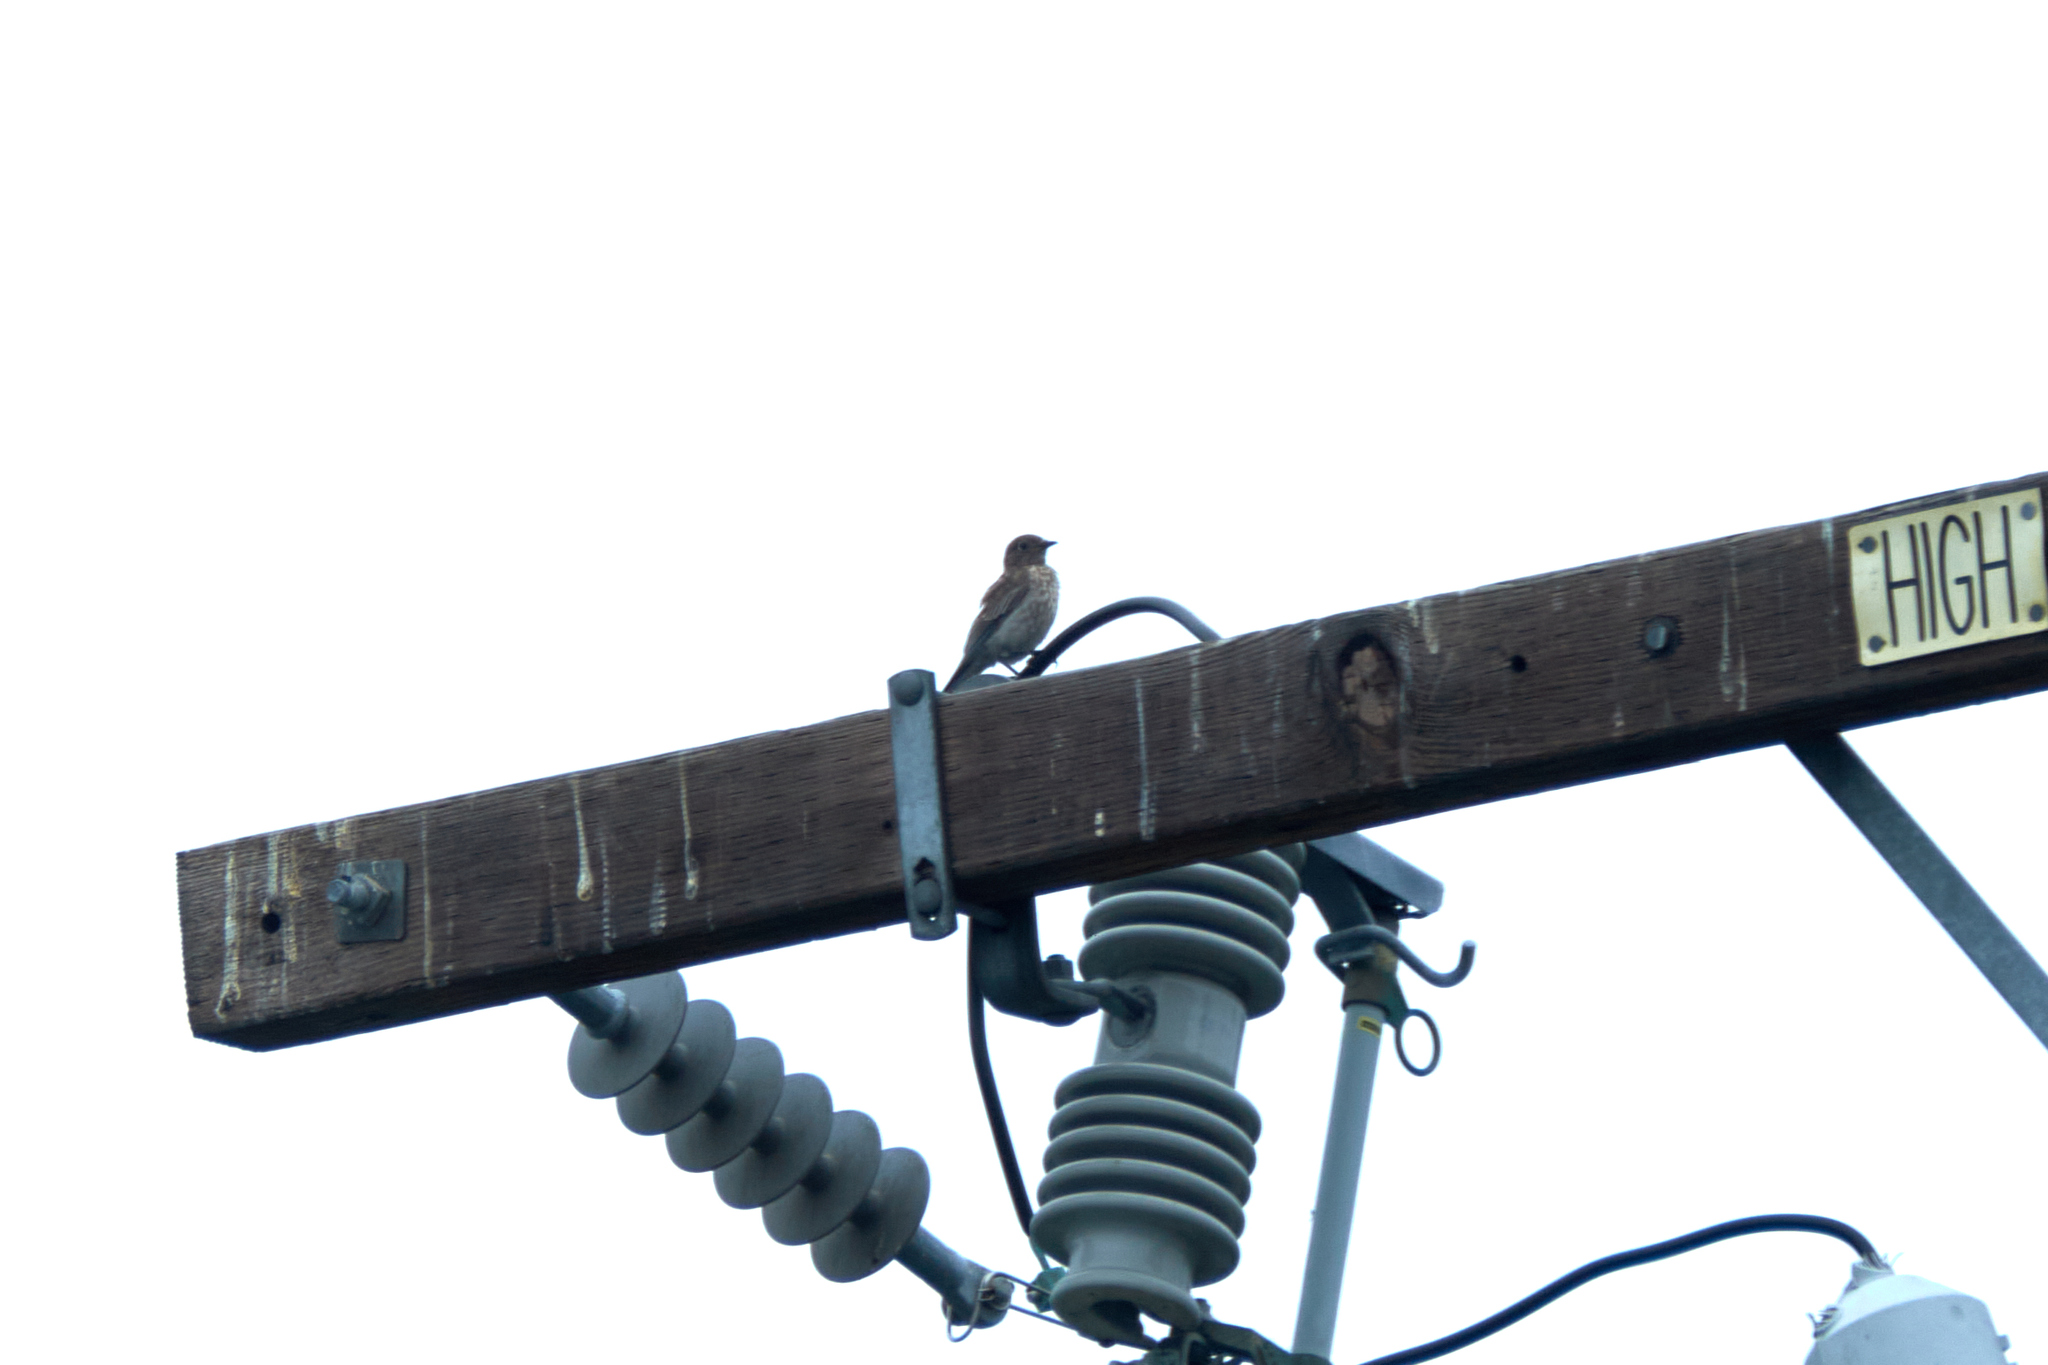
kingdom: Animalia
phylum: Chordata
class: Aves
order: Passeriformes
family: Turdidae
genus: Sialia
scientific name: Sialia mexicana
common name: Western bluebird
